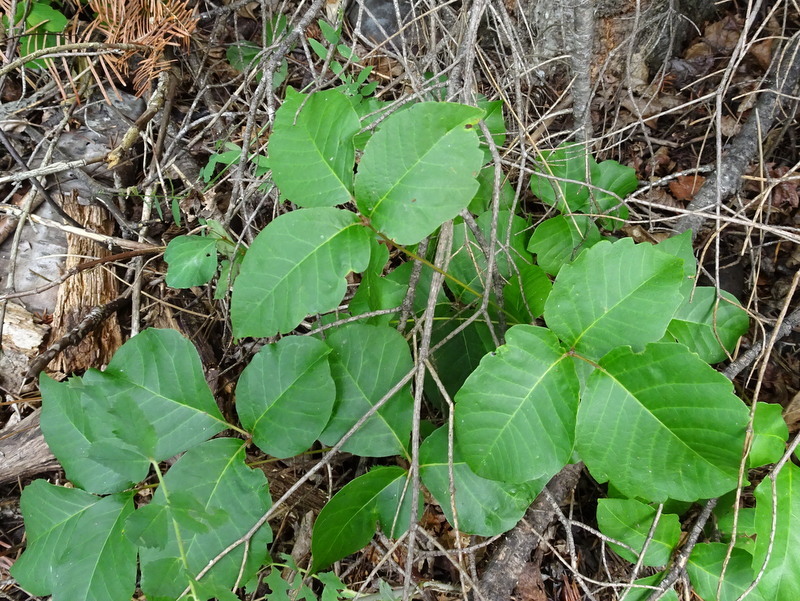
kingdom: Plantae
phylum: Tracheophyta
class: Magnoliopsida
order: Sapindales
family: Anacardiaceae
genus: Toxicodendron
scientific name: Toxicodendron rydbergii
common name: Rydberg's poison-ivy
